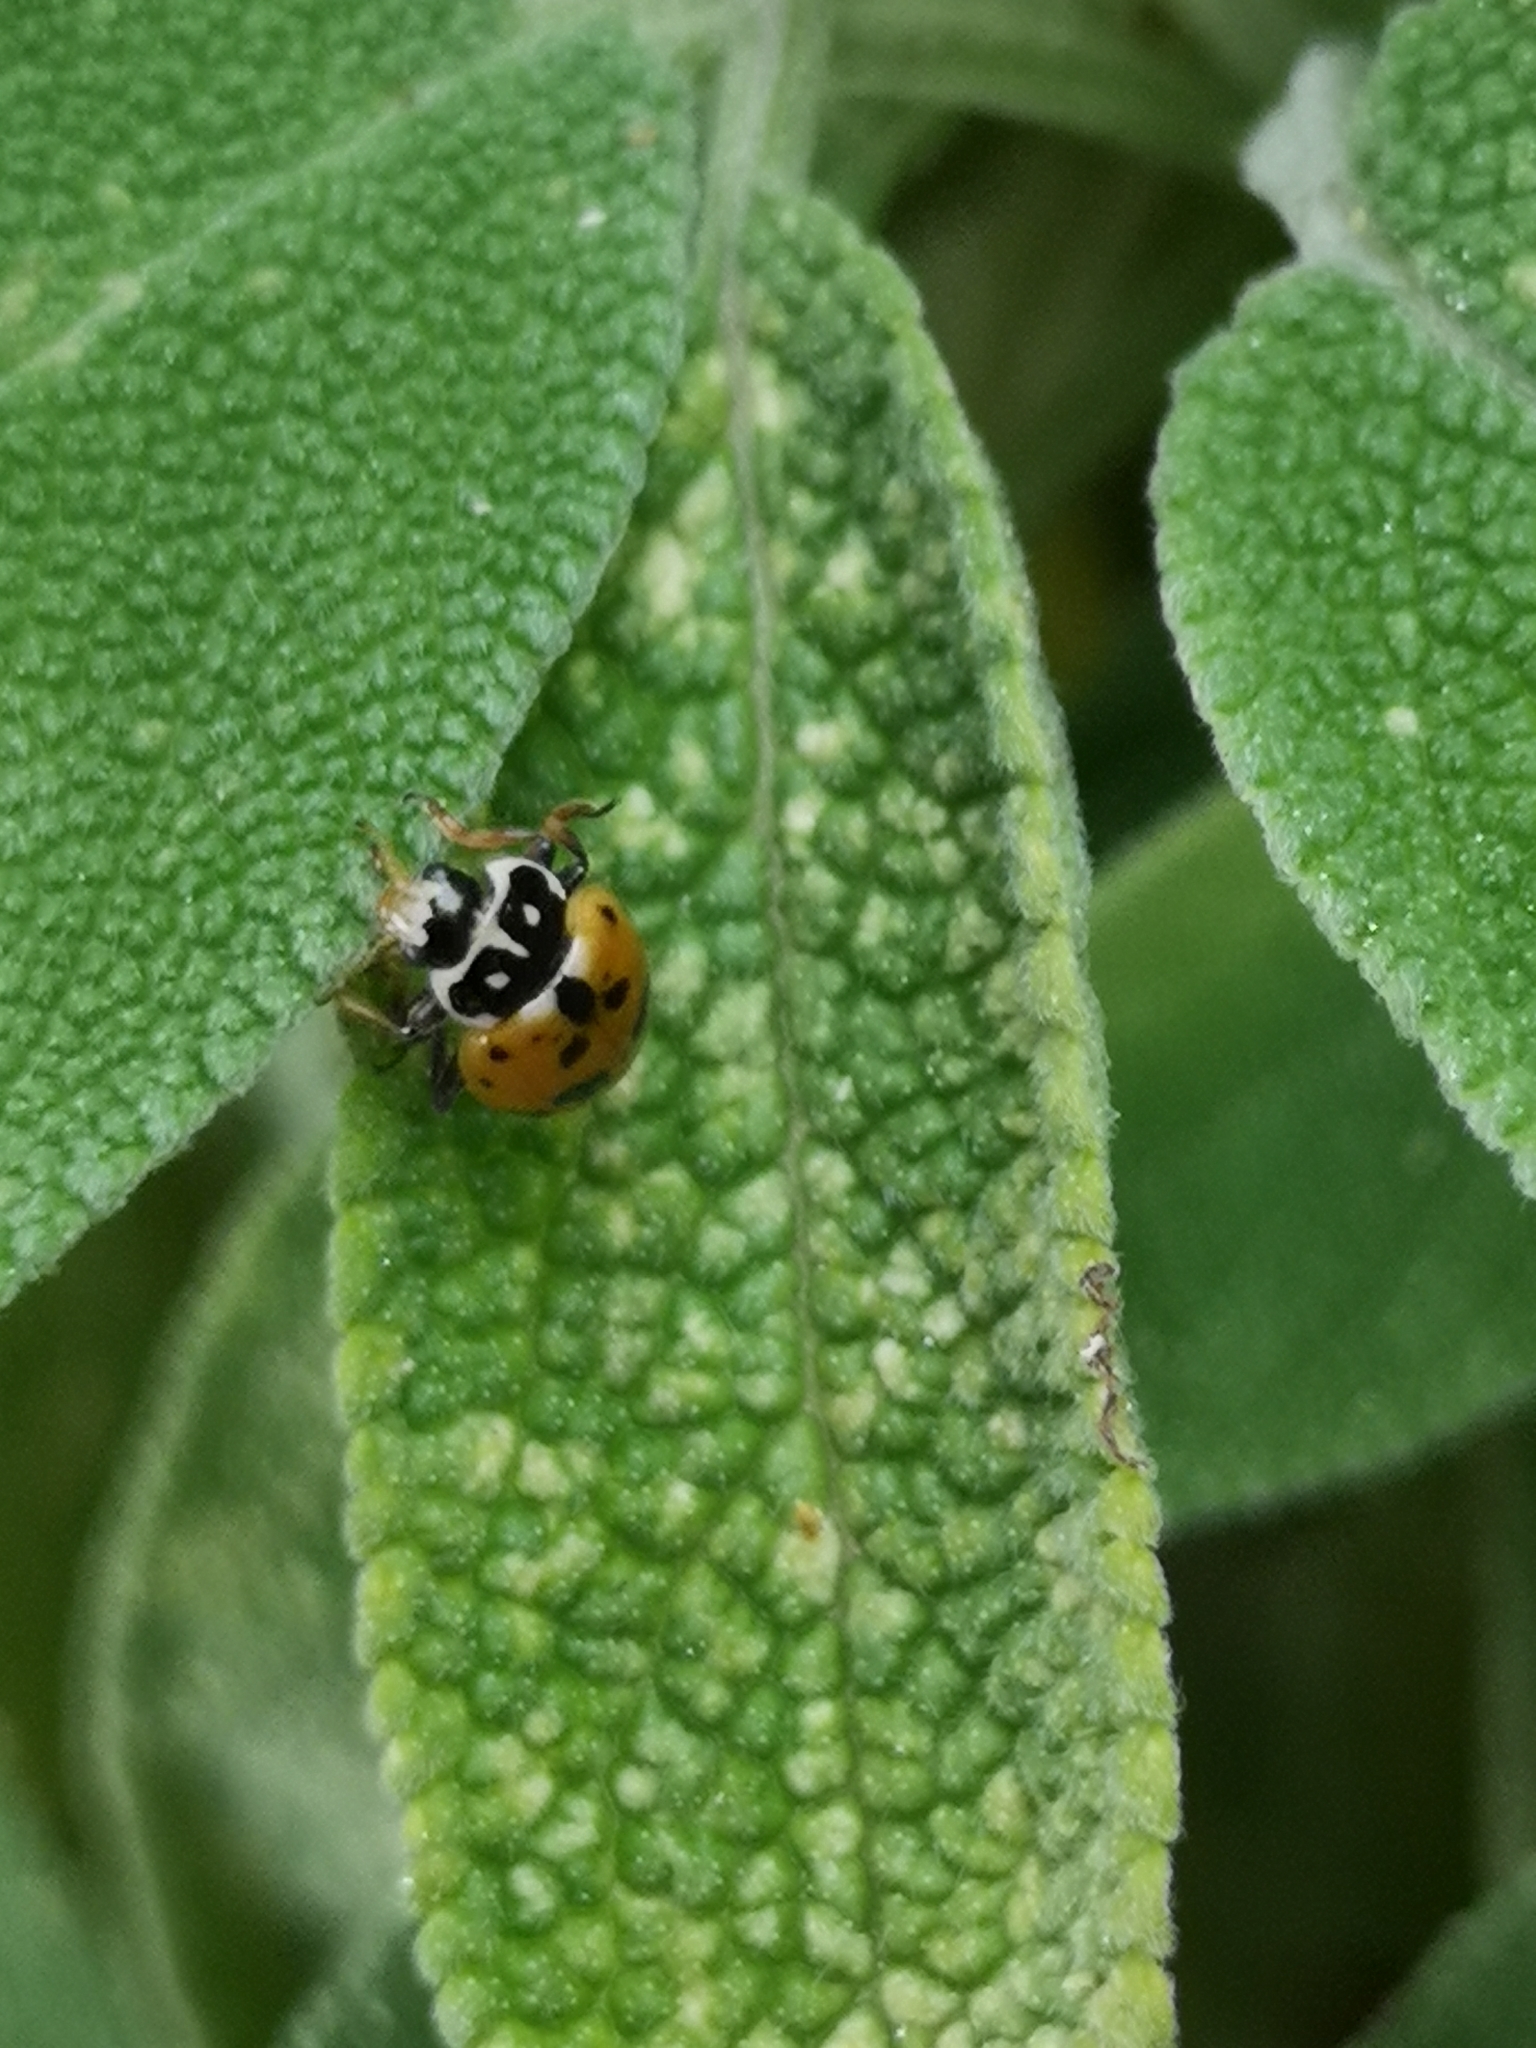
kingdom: Animalia
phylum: Arthropoda
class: Insecta
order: Coleoptera
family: Coccinellidae
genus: Hippodamia
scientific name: Hippodamia variegata
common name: Ladybird beetle
